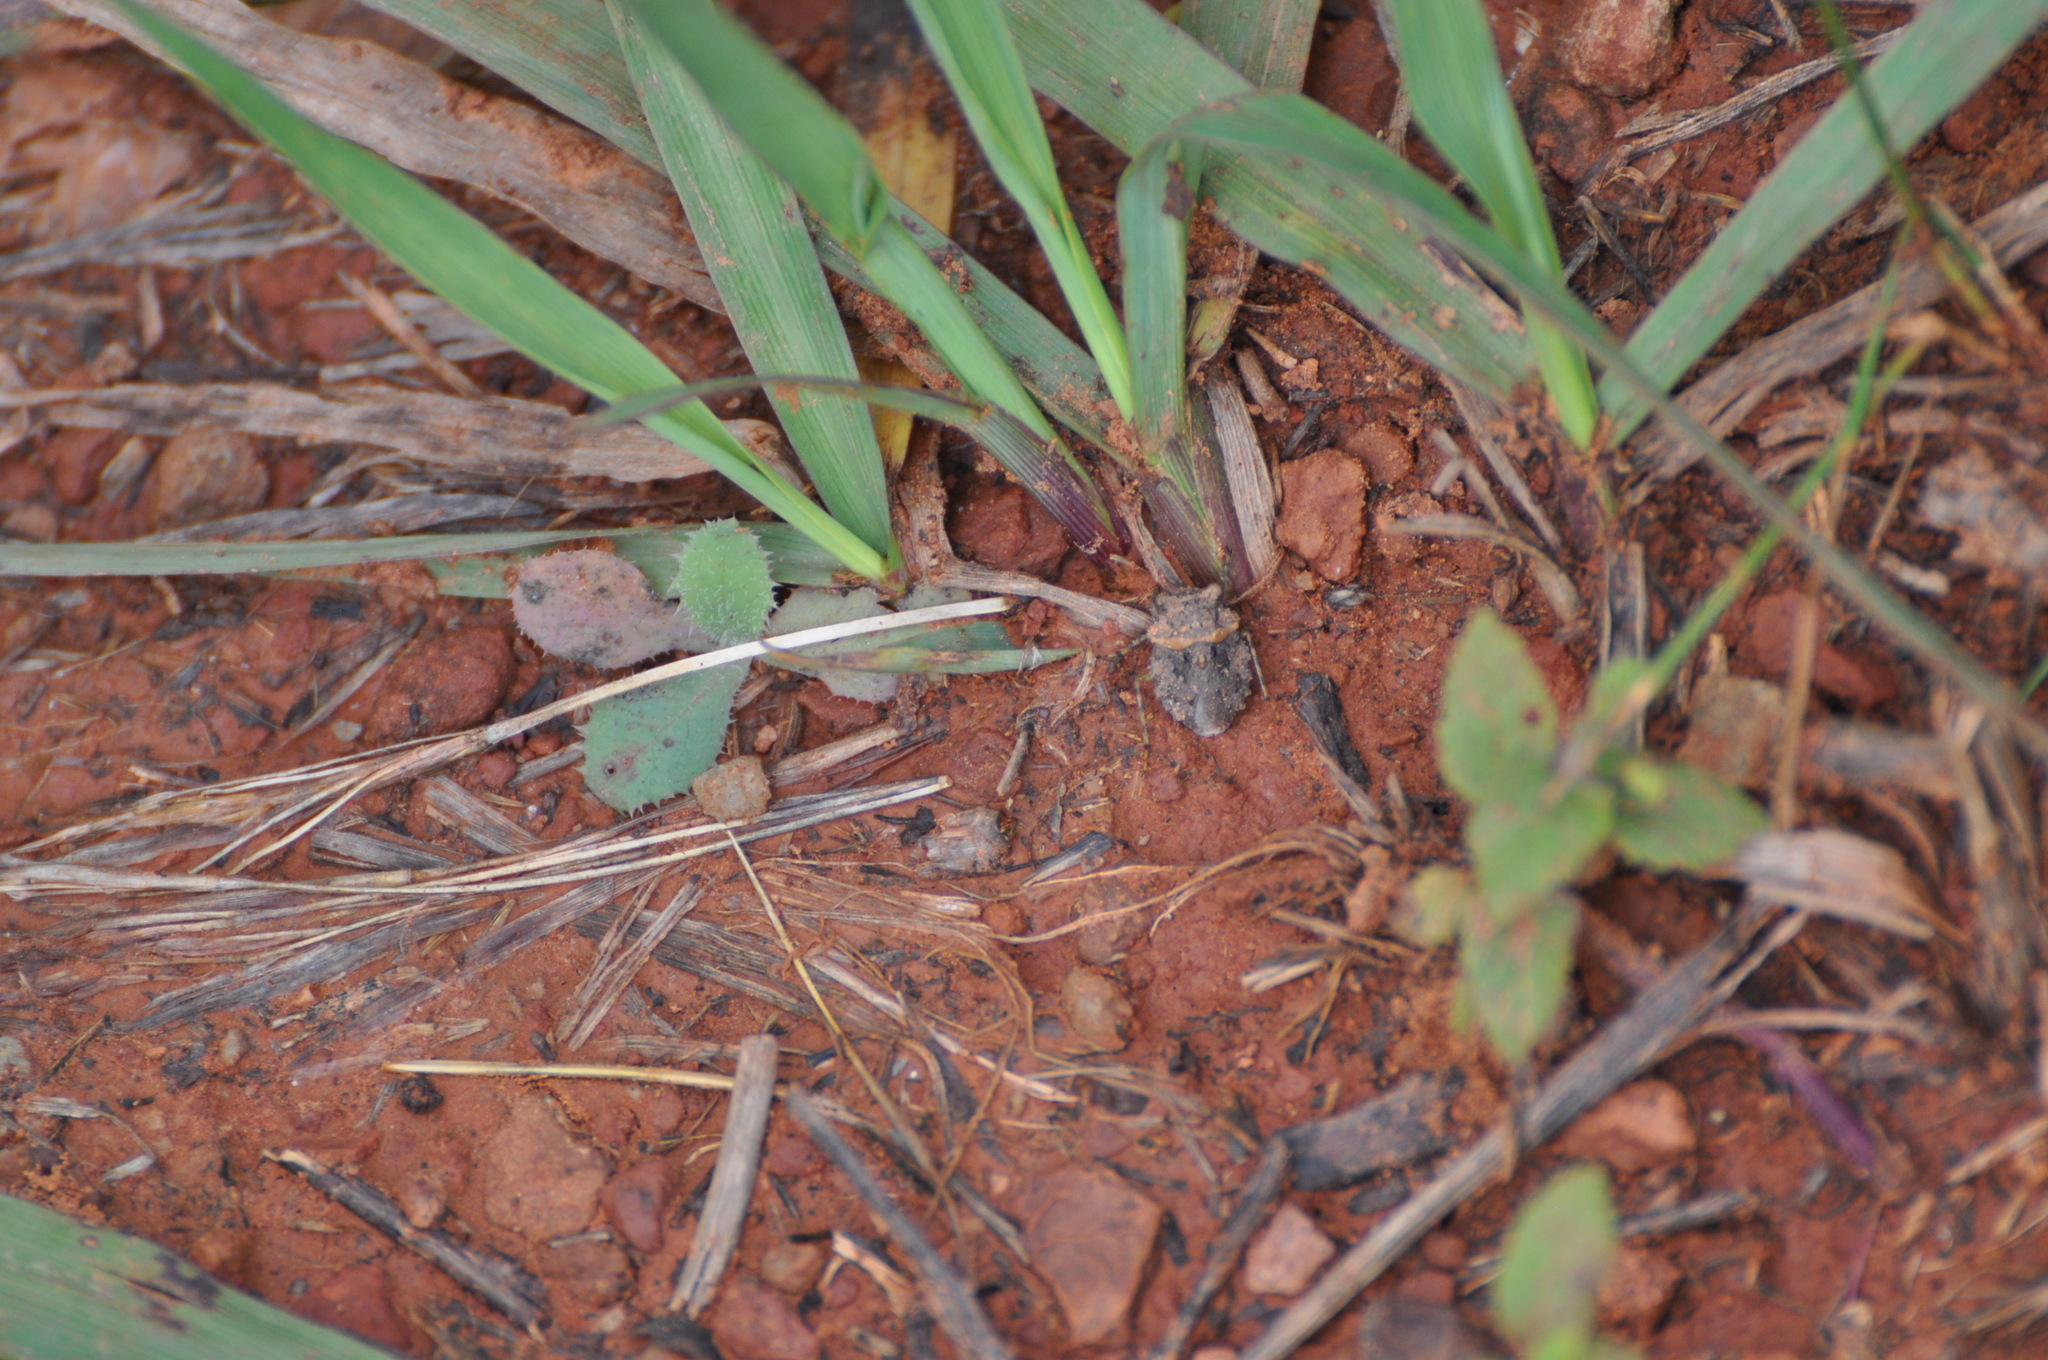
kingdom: Animalia
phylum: Arthropoda
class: Insecta
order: Hemiptera
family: Gelastocoridae
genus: Gelastocoris
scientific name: Gelastocoris oculatus
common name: Toad bug
